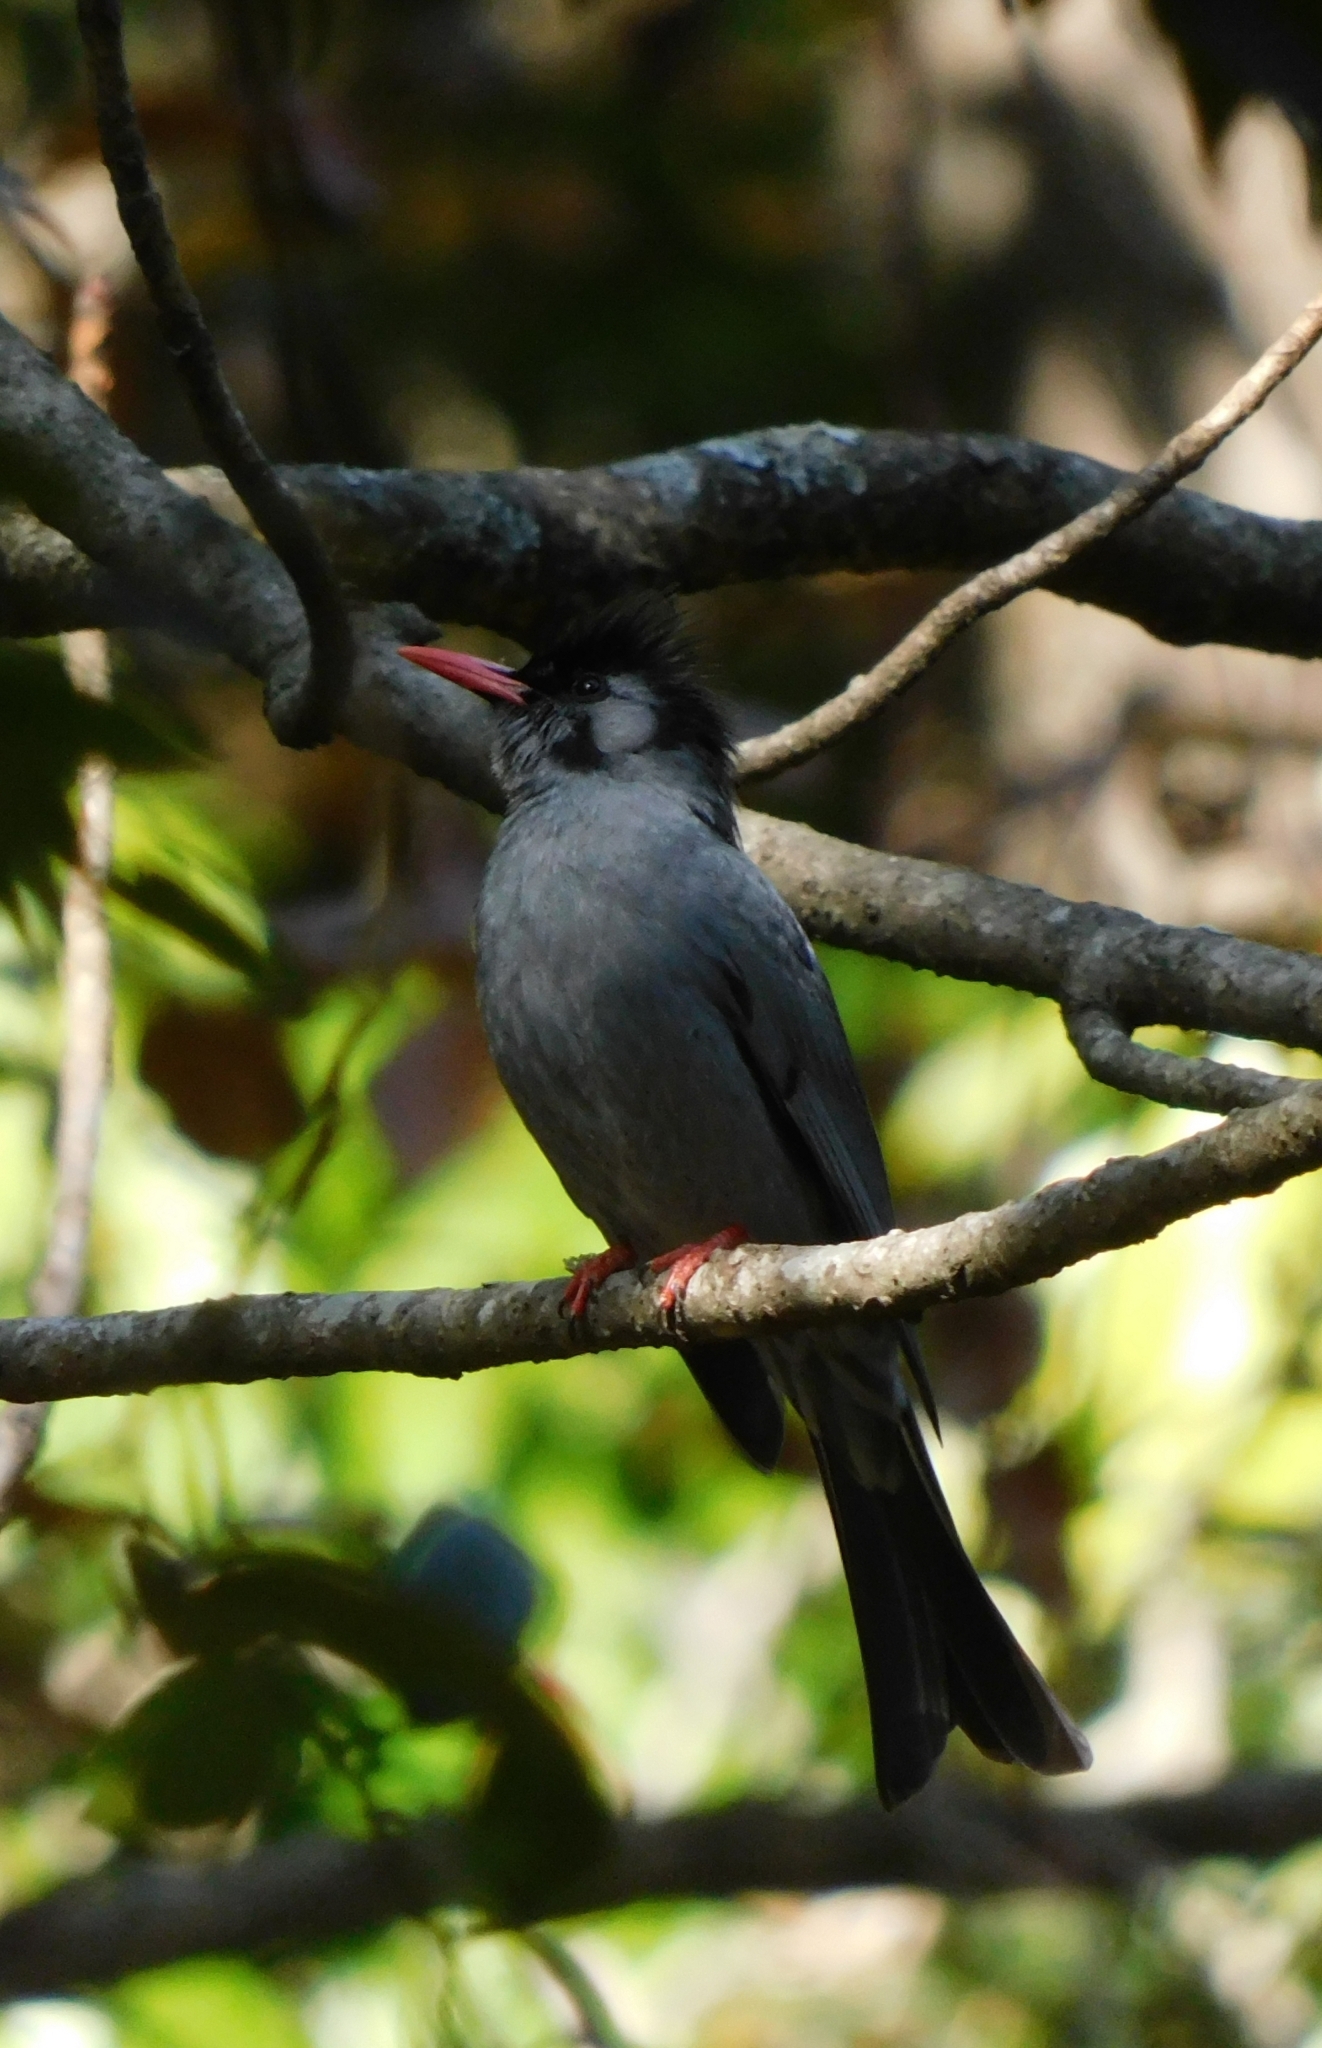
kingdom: Animalia
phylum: Chordata
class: Aves
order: Passeriformes
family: Pycnonotidae
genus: Hypsipetes
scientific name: Hypsipetes leucocephalus
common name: Black bulbul
